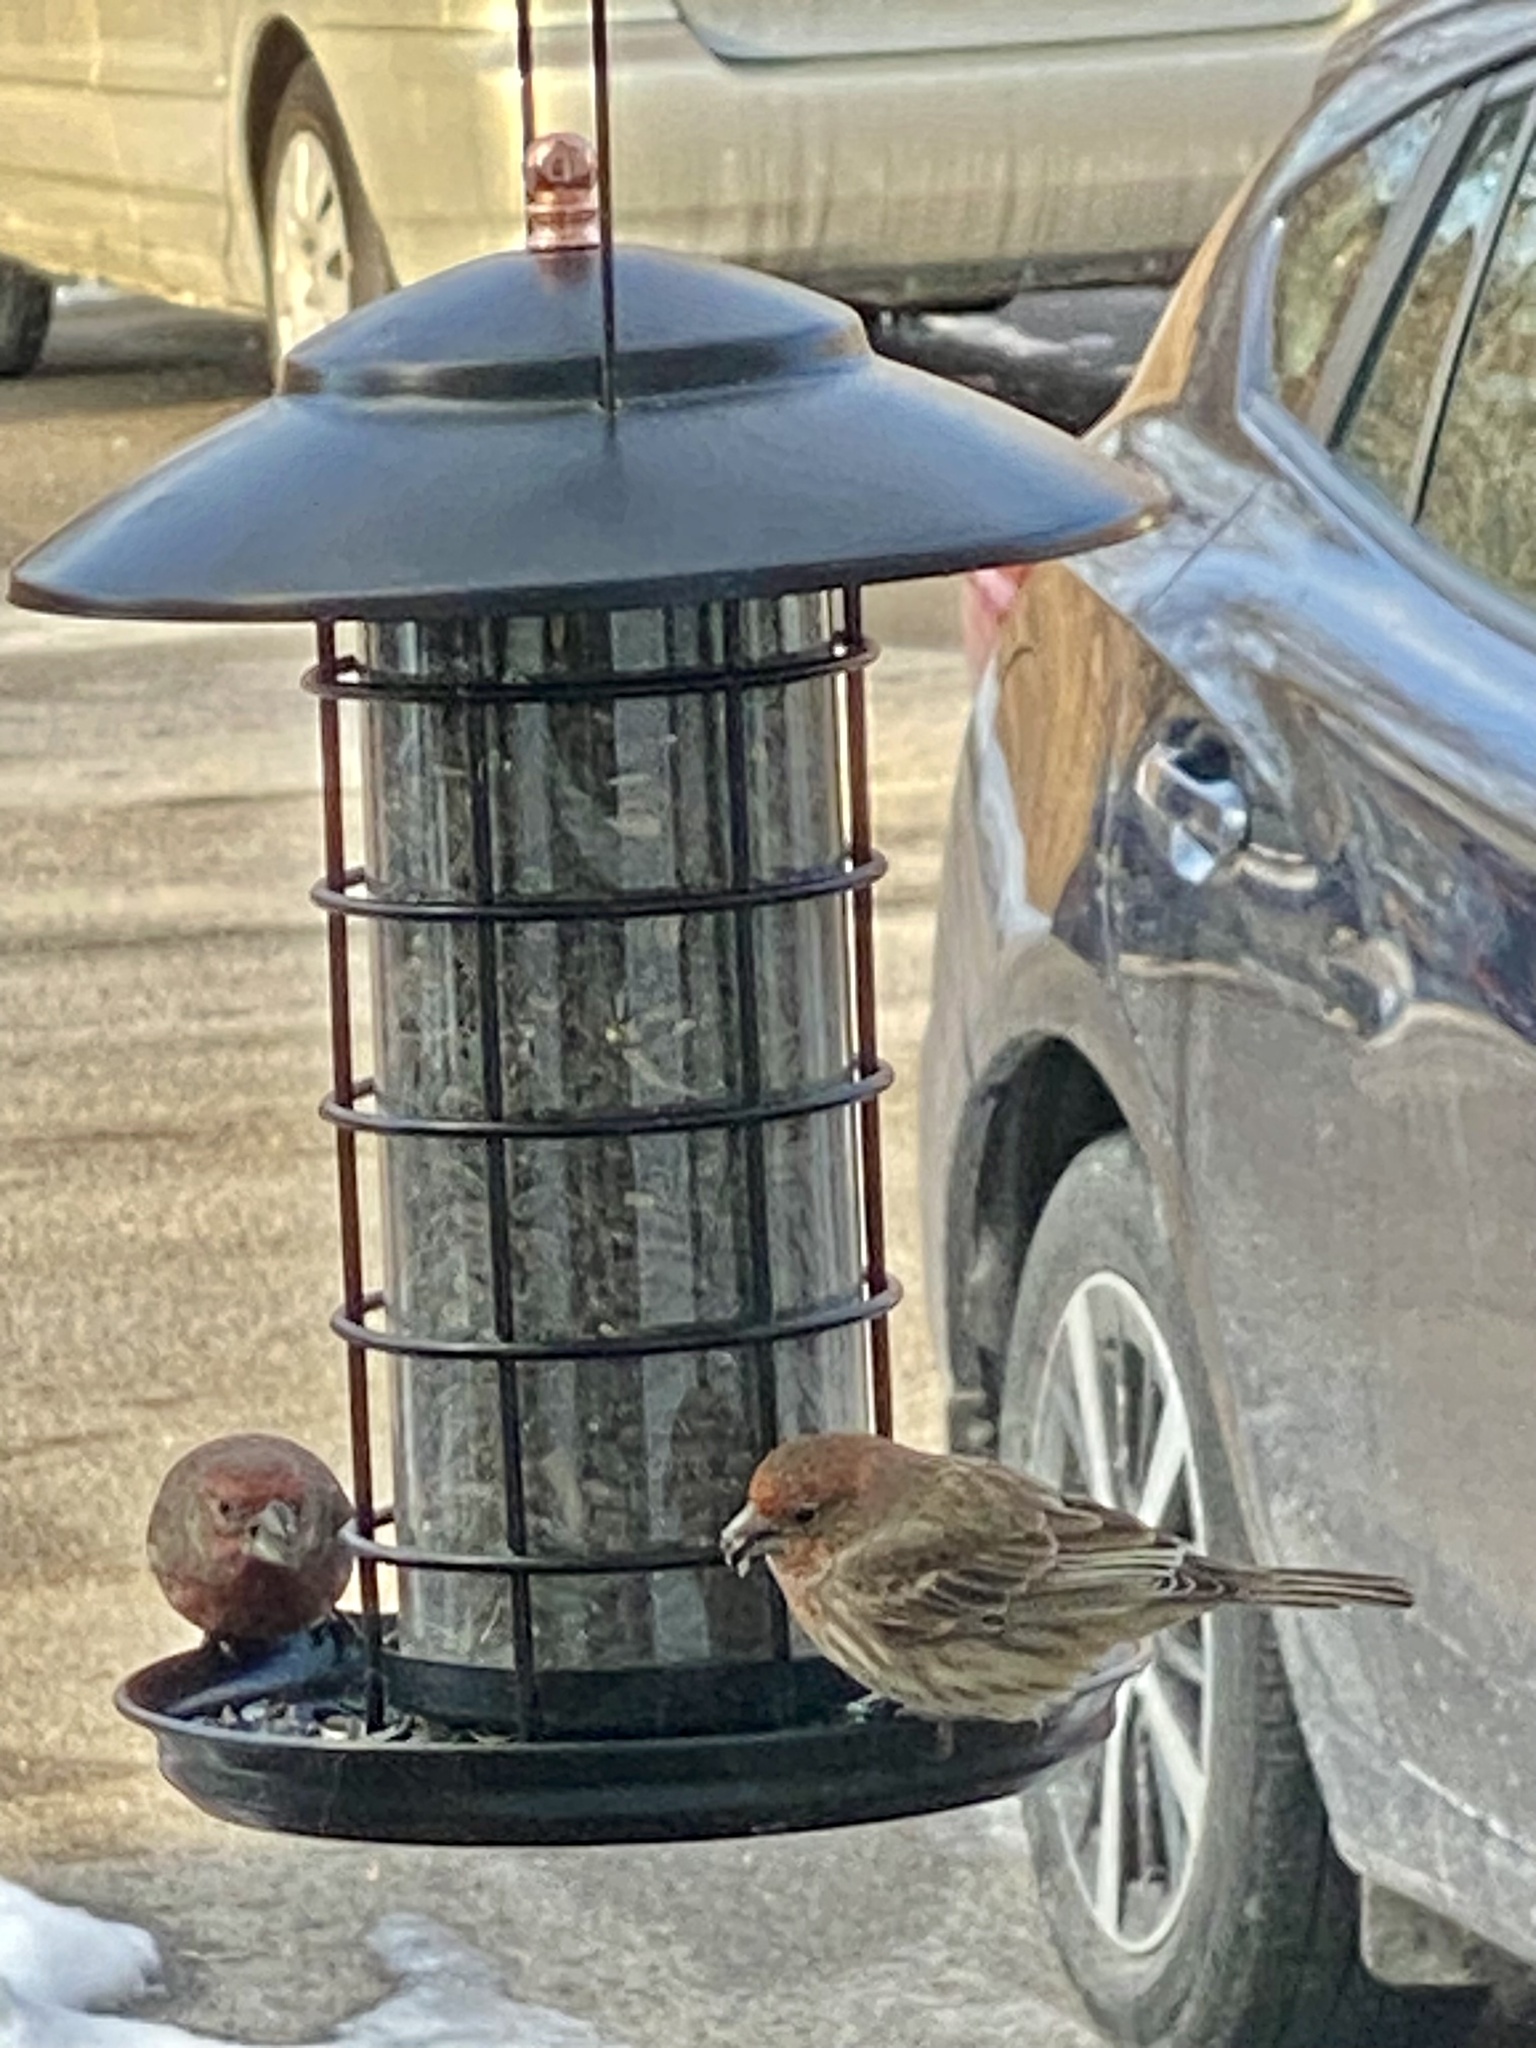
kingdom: Animalia
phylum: Chordata
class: Aves
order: Passeriformes
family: Fringillidae
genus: Haemorhous
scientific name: Haemorhous mexicanus
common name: House finch
